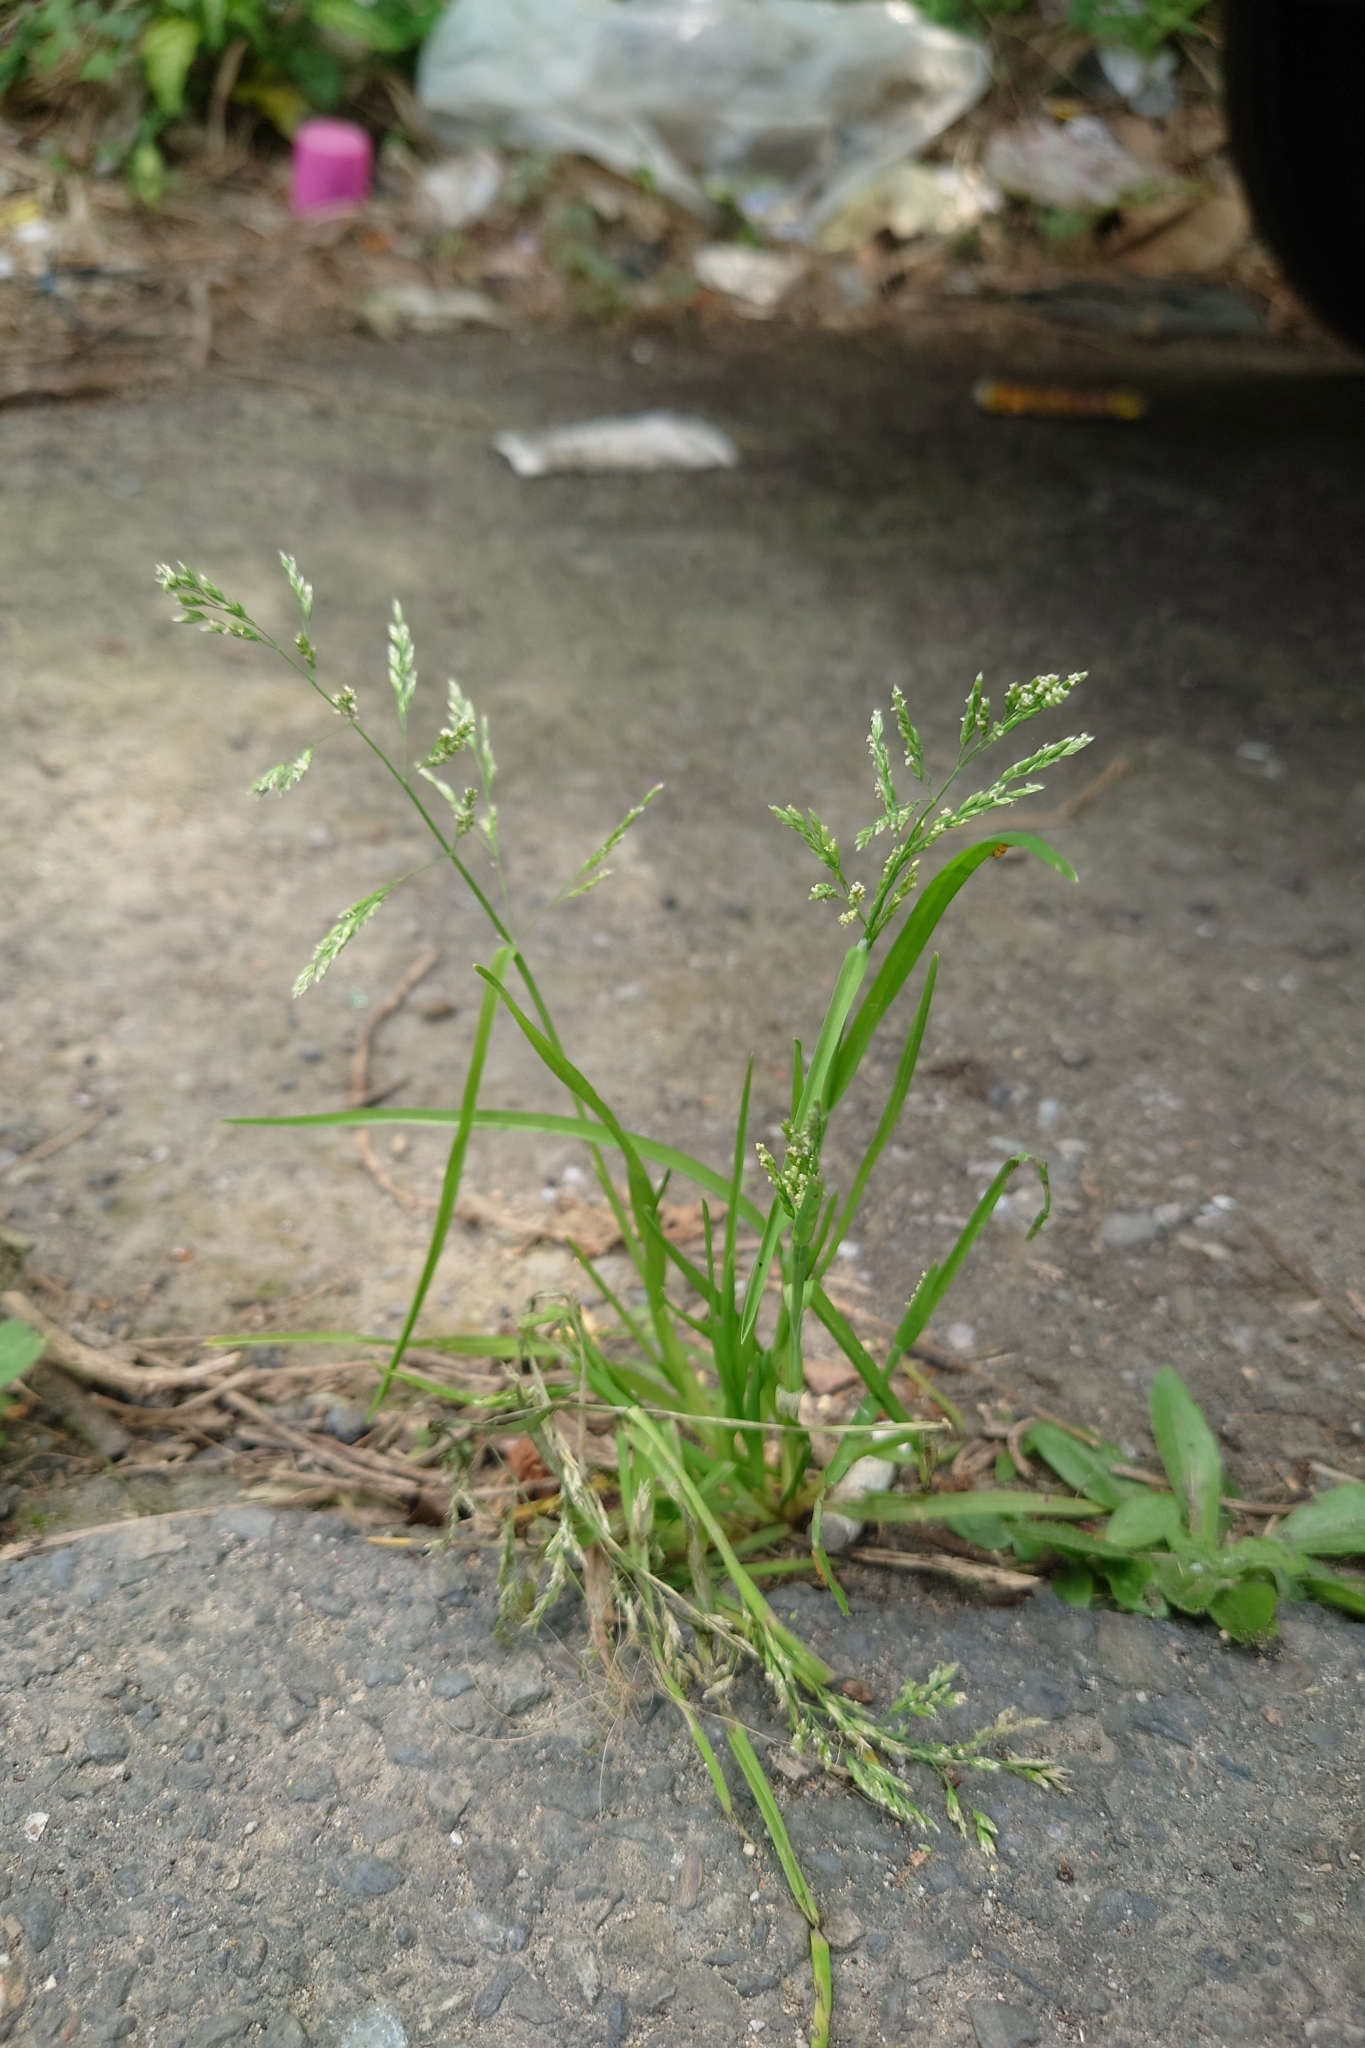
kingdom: Plantae
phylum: Tracheophyta
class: Liliopsida
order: Poales
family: Poaceae
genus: Poa
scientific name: Poa annua
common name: Annual bluegrass
